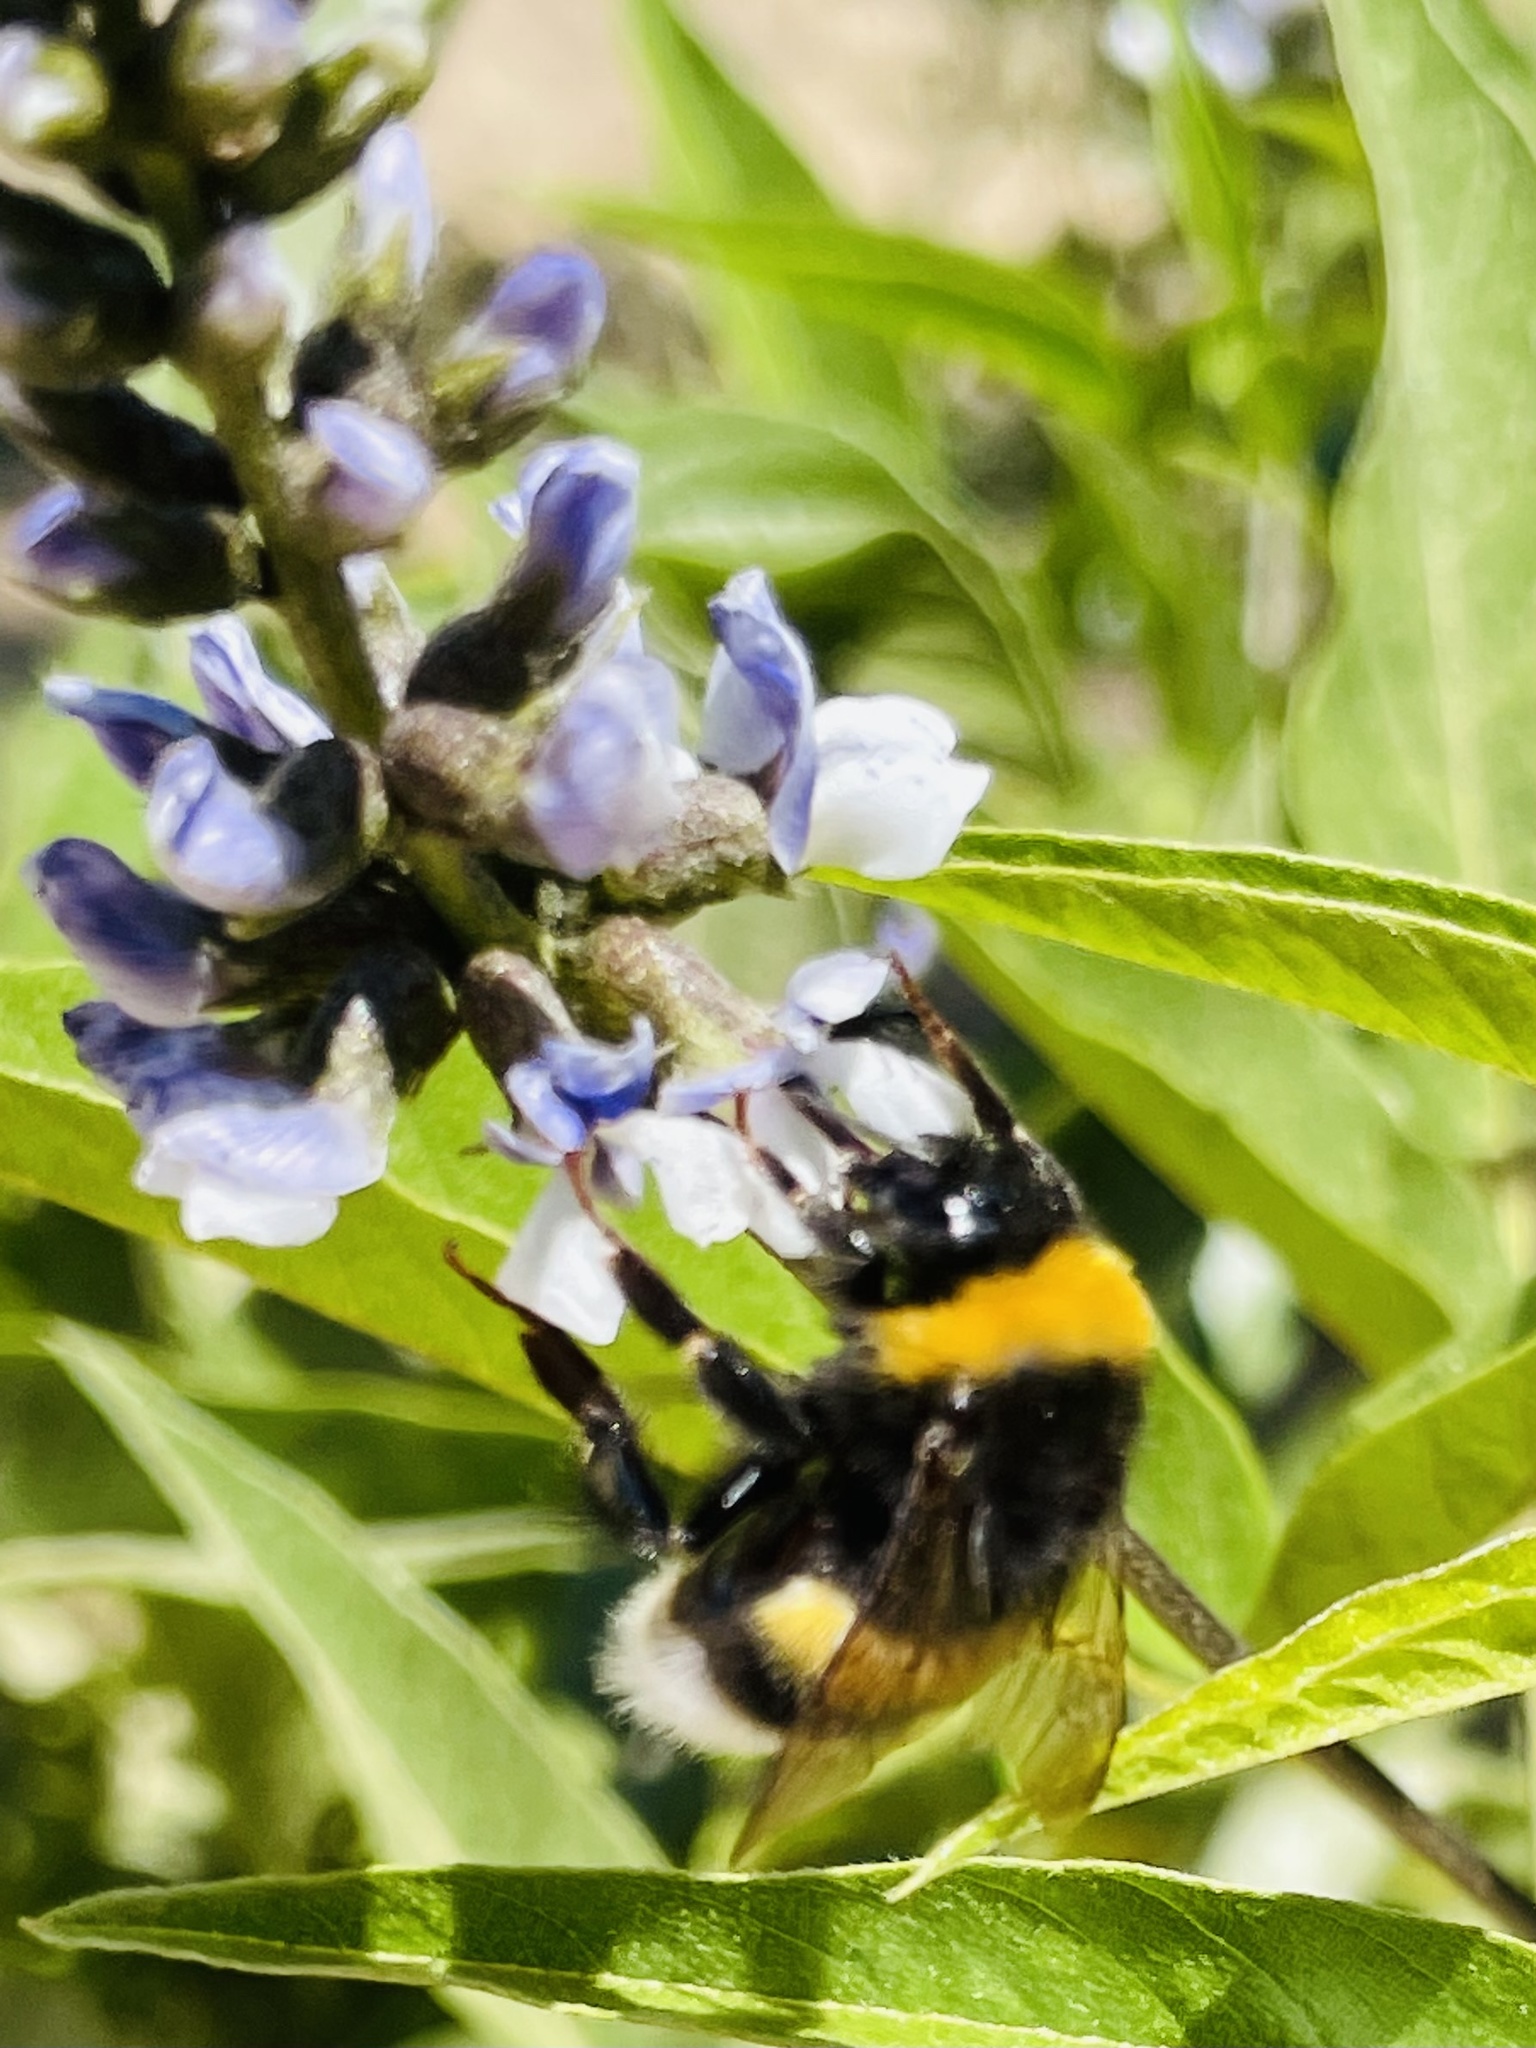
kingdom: Animalia
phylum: Arthropoda
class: Insecta
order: Hymenoptera
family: Apidae
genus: Bombus
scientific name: Bombus terrestris
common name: Buff-tailed bumblebee
